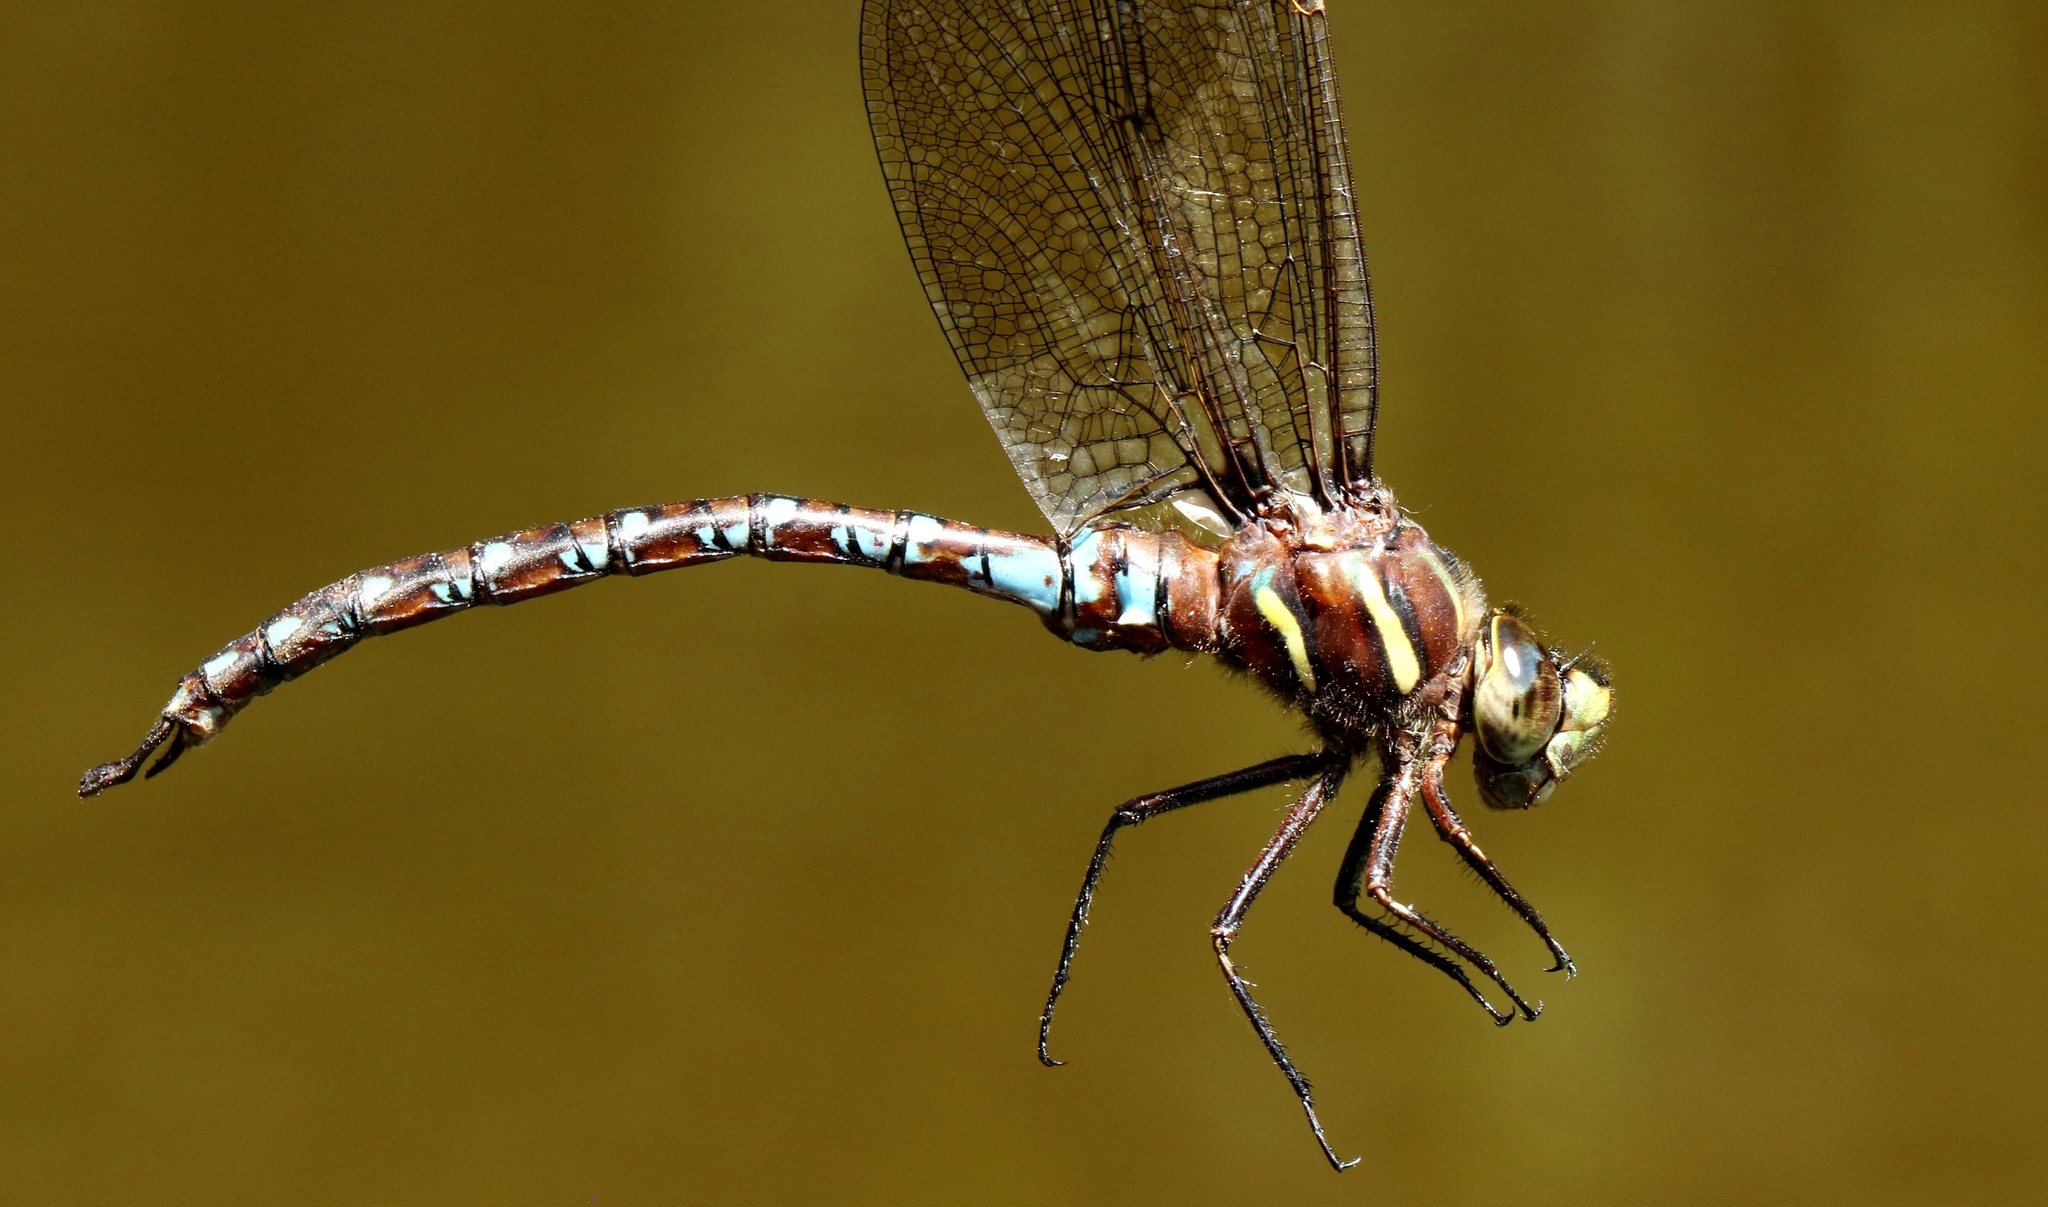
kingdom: Animalia
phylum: Arthropoda
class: Insecta
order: Odonata
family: Aeshnidae
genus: Basiaeschna
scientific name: Basiaeschna janata
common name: Springtime darner
